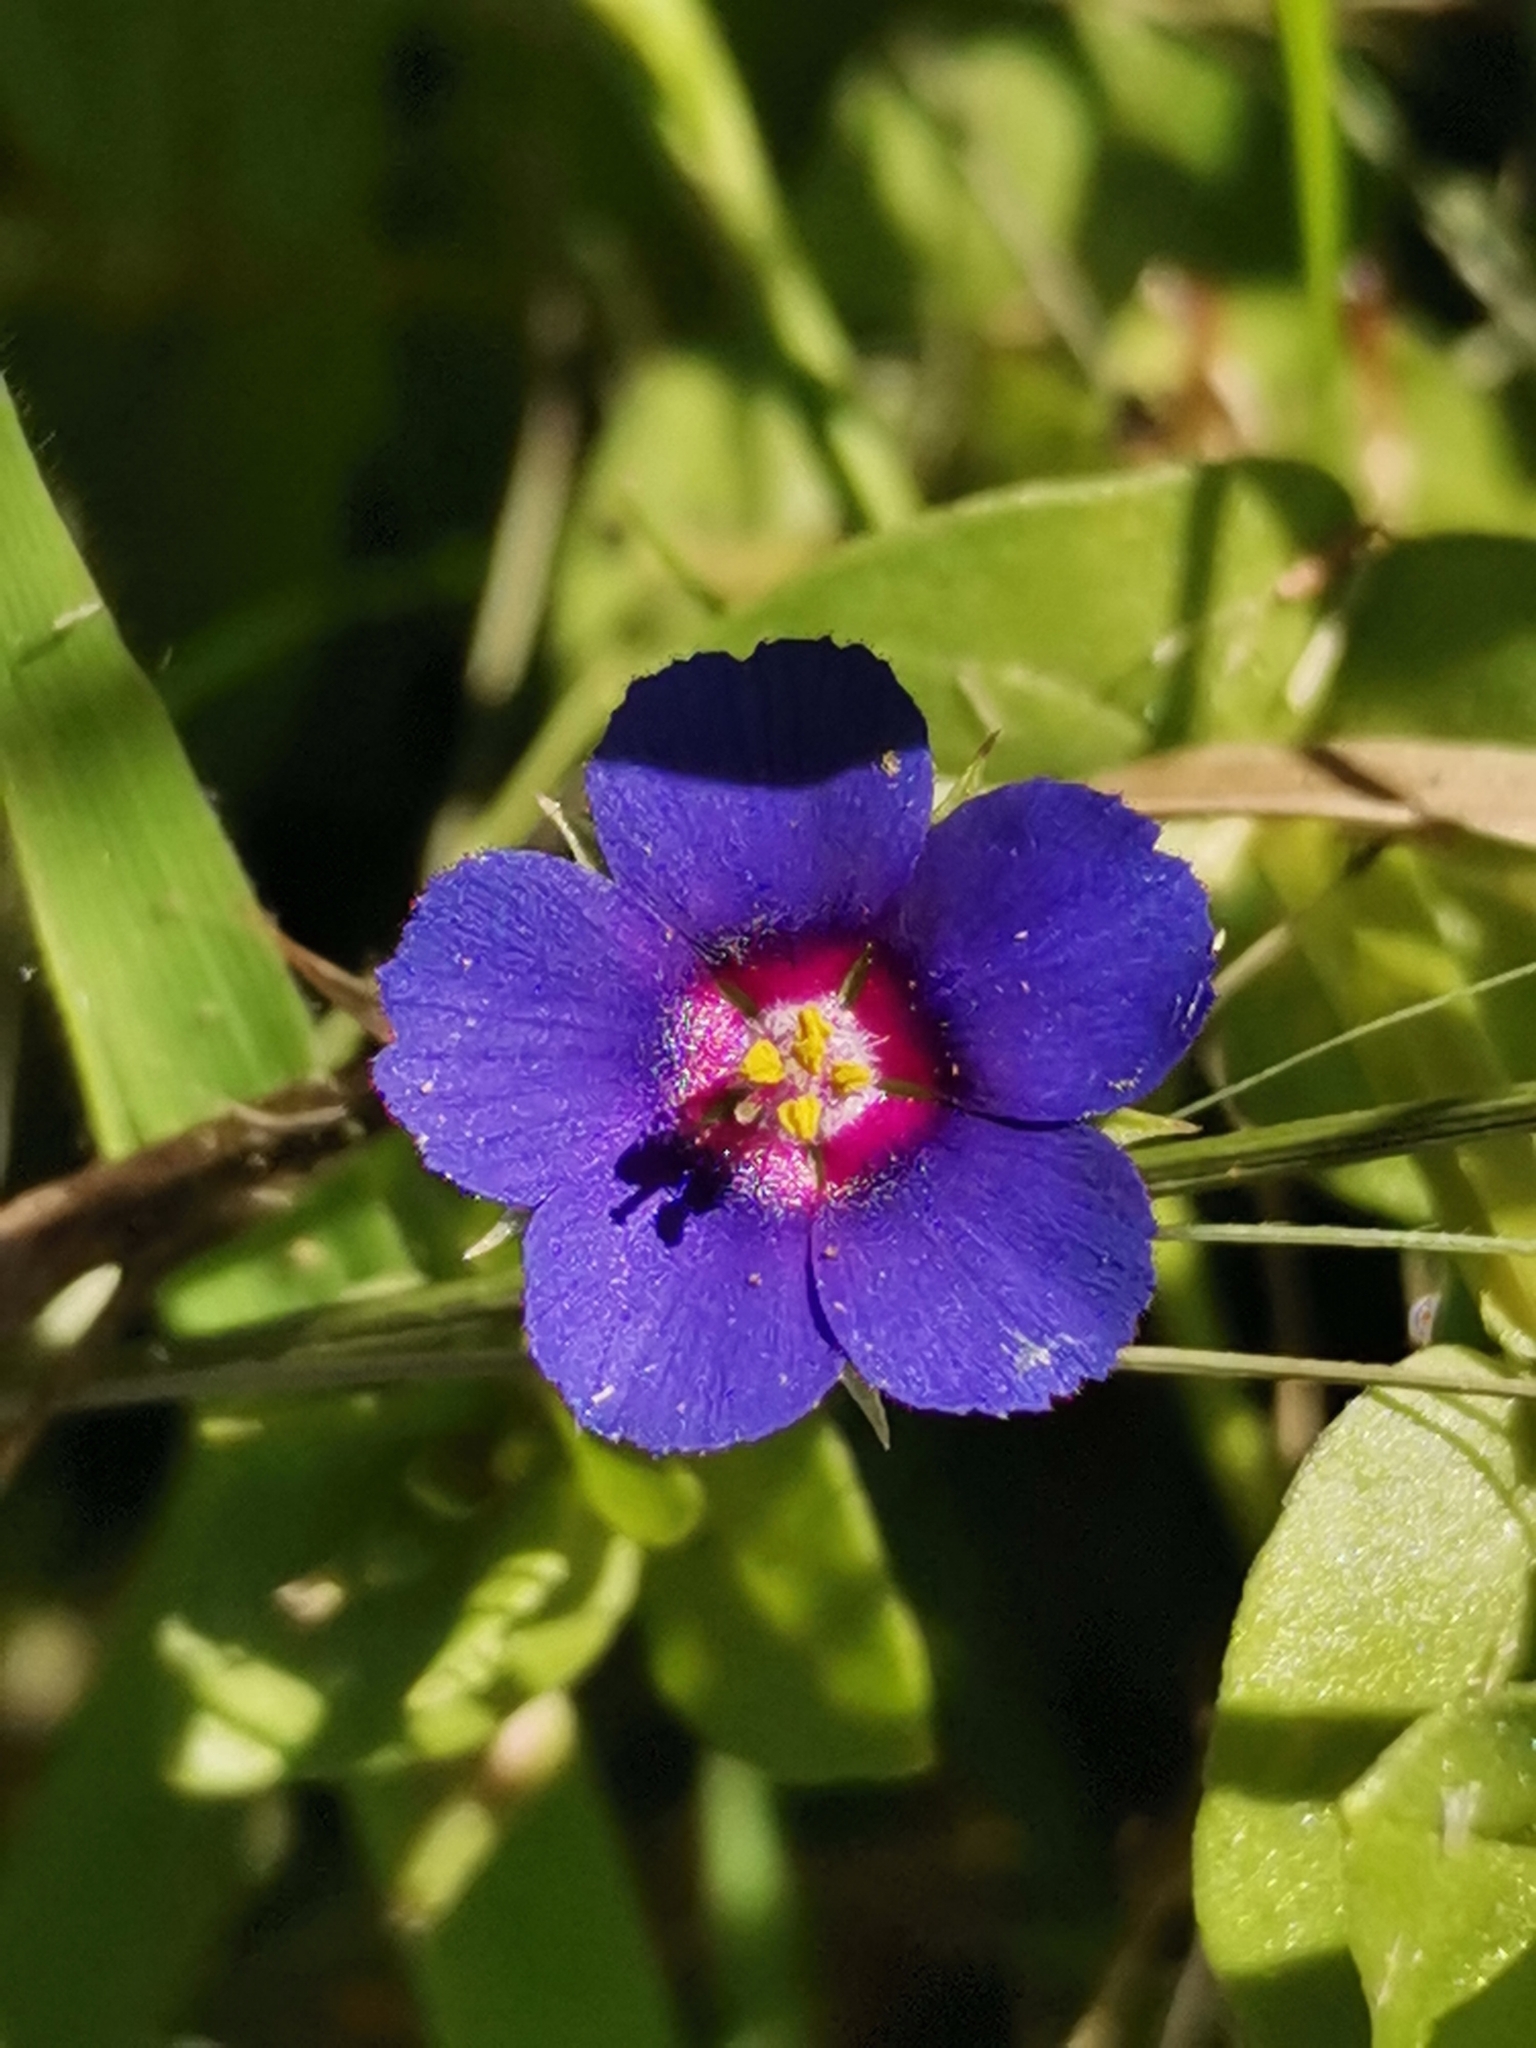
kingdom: Plantae
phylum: Tracheophyta
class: Magnoliopsida
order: Ericales
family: Primulaceae
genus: Lysimachia
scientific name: Lysimachia arvensis
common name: Scarlet pimpernel
